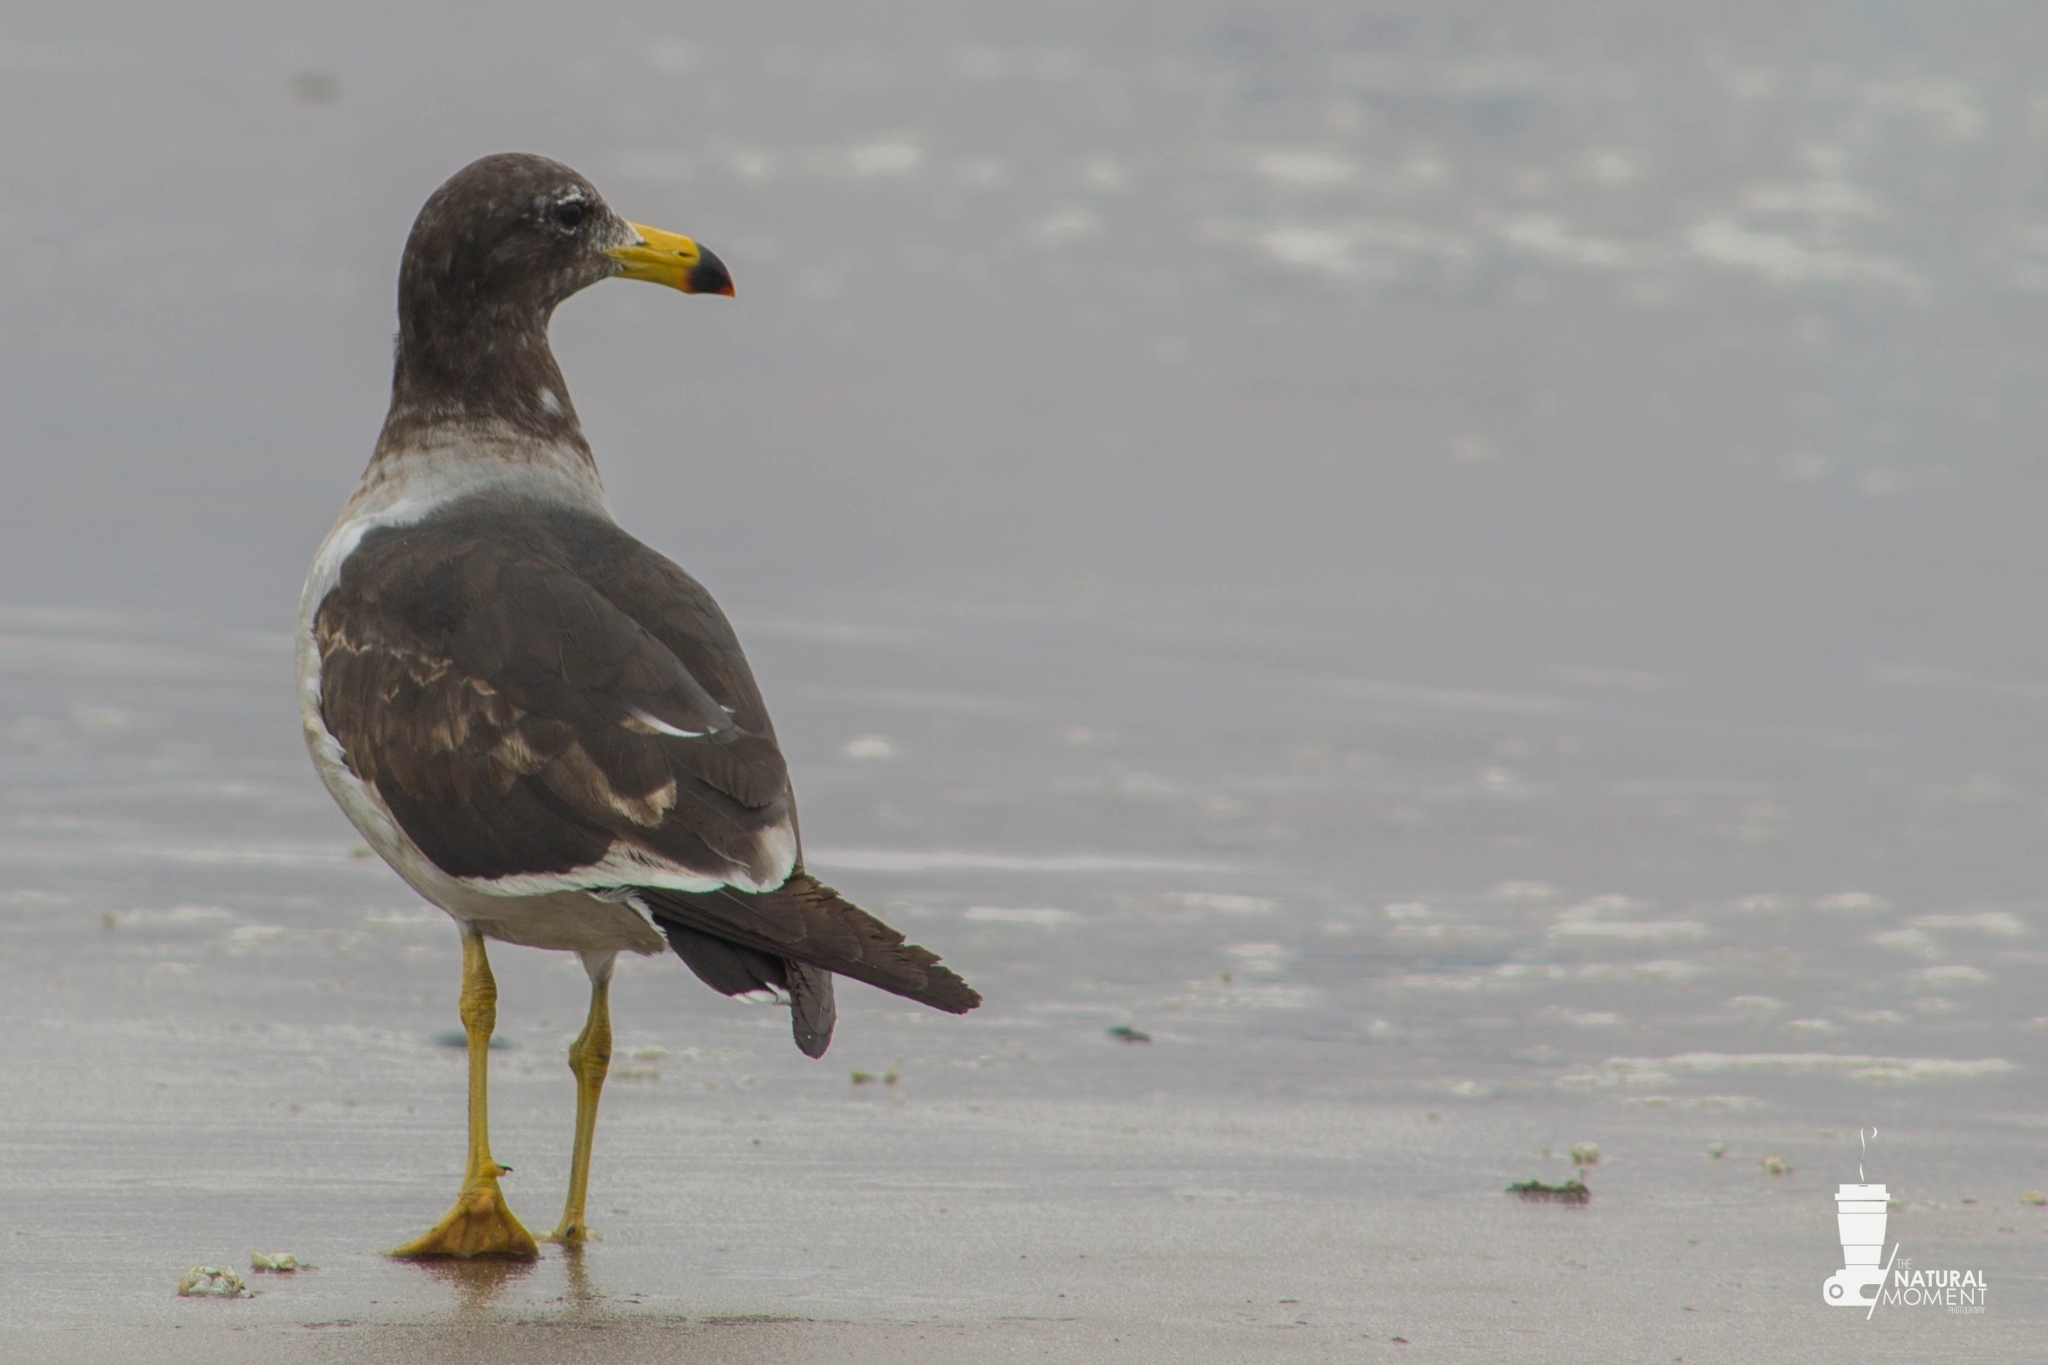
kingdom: Animalia
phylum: Chordata
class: Aves
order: Charadriiformes
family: Laridae
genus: Larus
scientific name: Larus belcheri
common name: Belcher's gull
